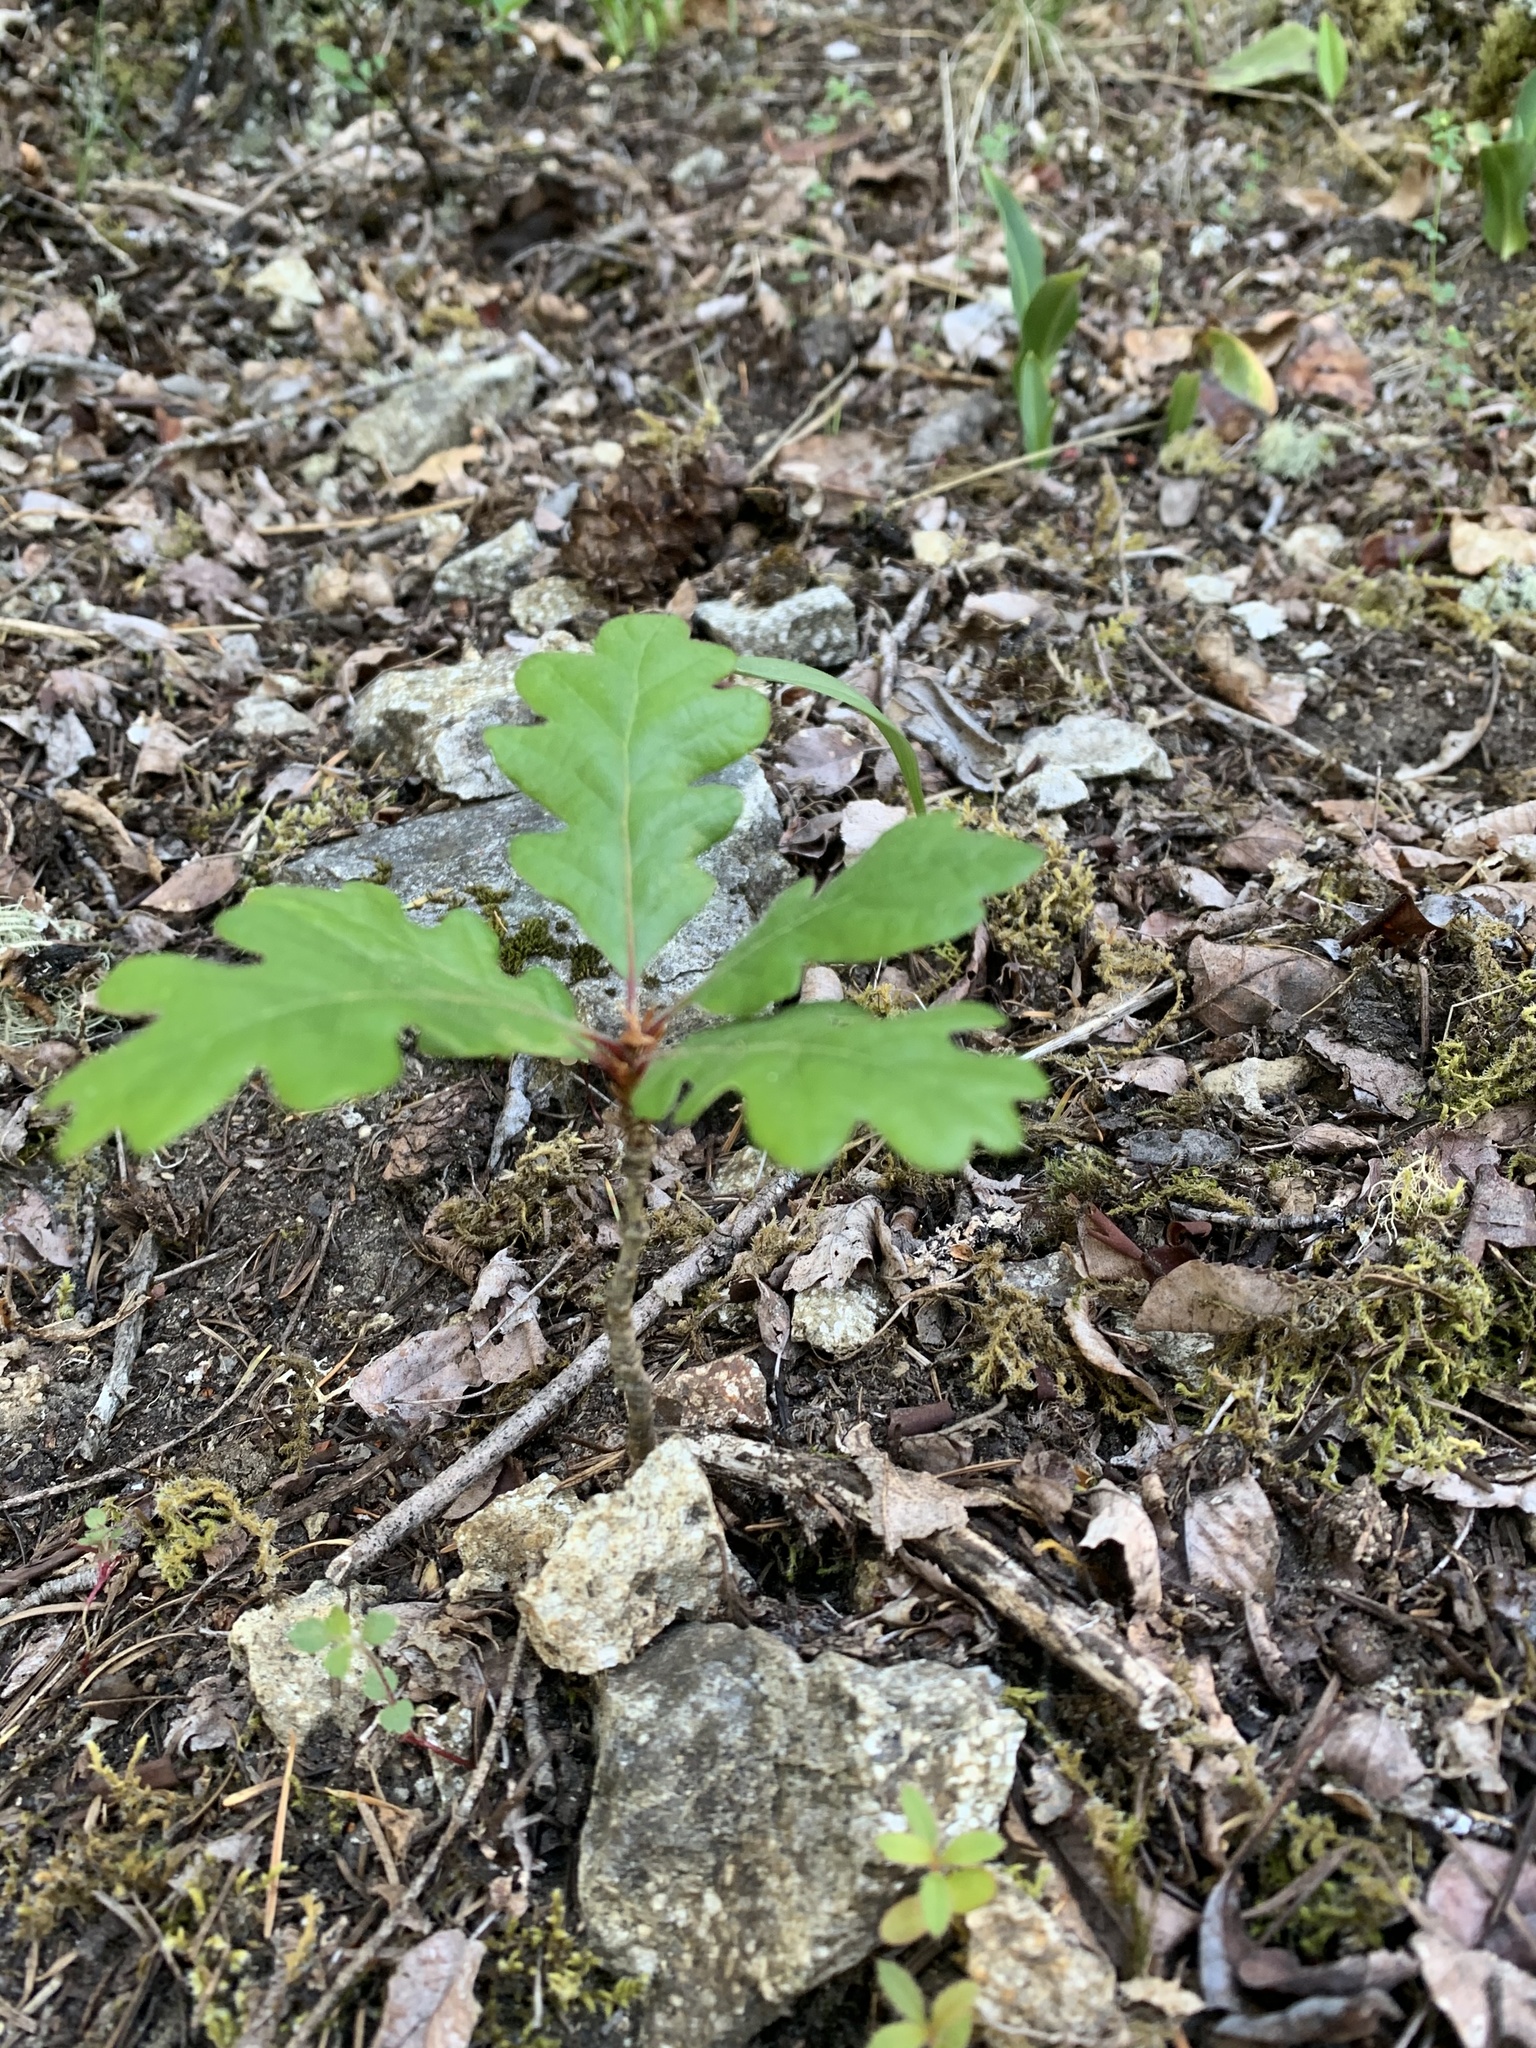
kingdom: Plantae
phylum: Tracheophyta
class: Magnoliopsida
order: Fagales
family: Fagaceae
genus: Quercus
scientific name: Quercus garryana
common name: Garry oak
